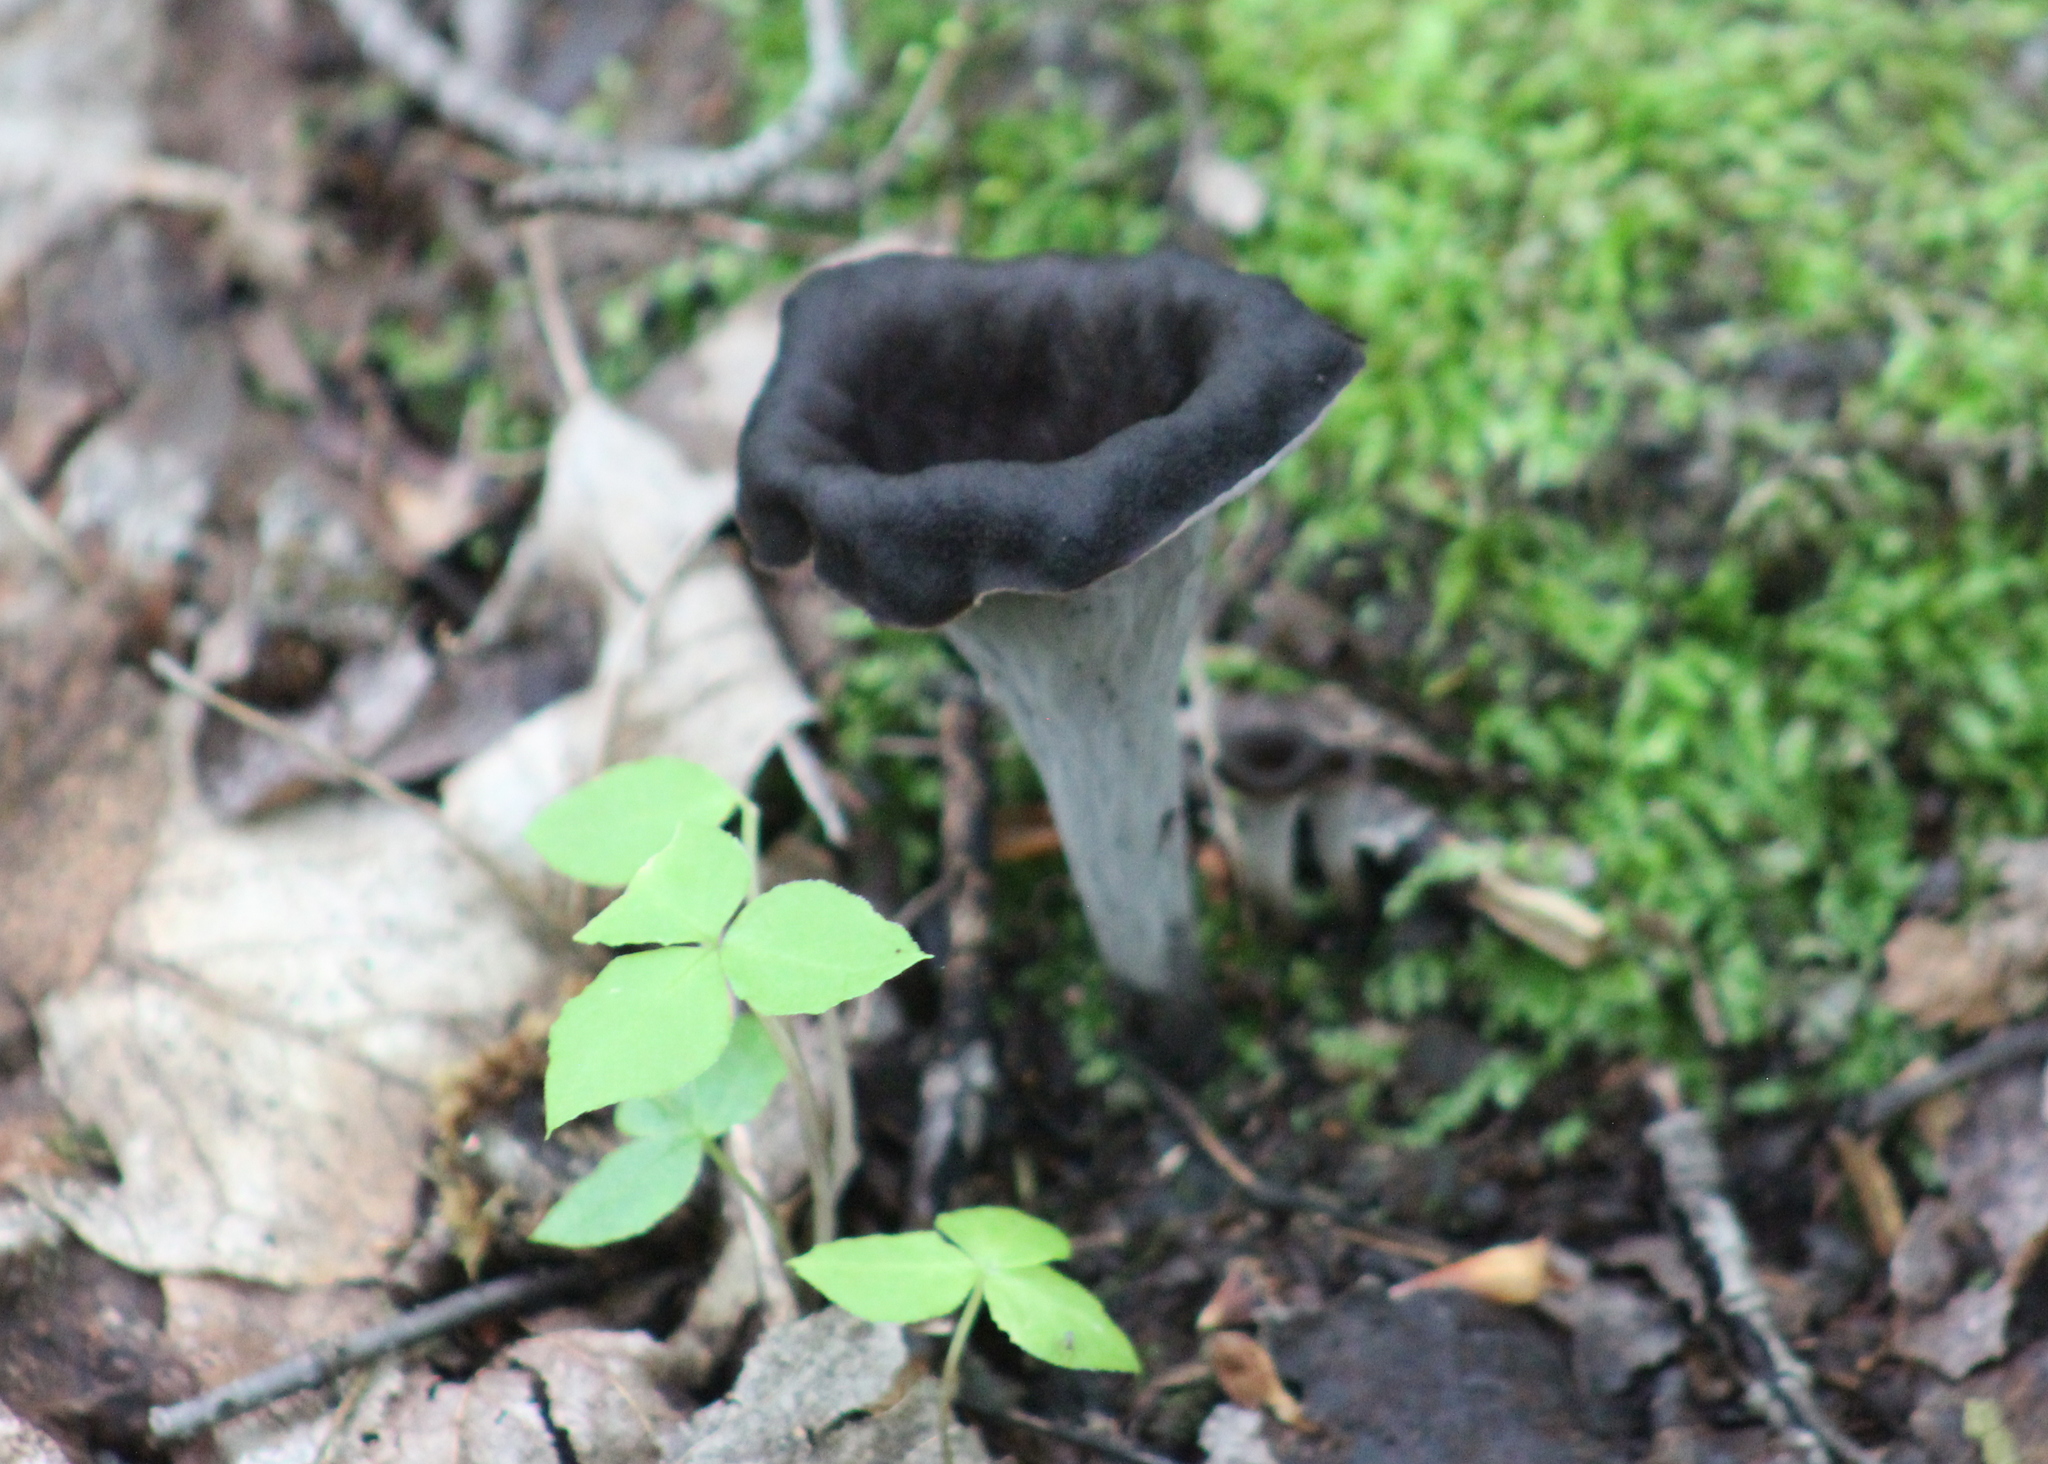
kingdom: Fungi
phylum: Basidiomycota
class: Agaricomycetes
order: Cantharellales
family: Hydnaceae
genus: Craterellus
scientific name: Craterellus cornucopioides
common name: Horn of plenty
